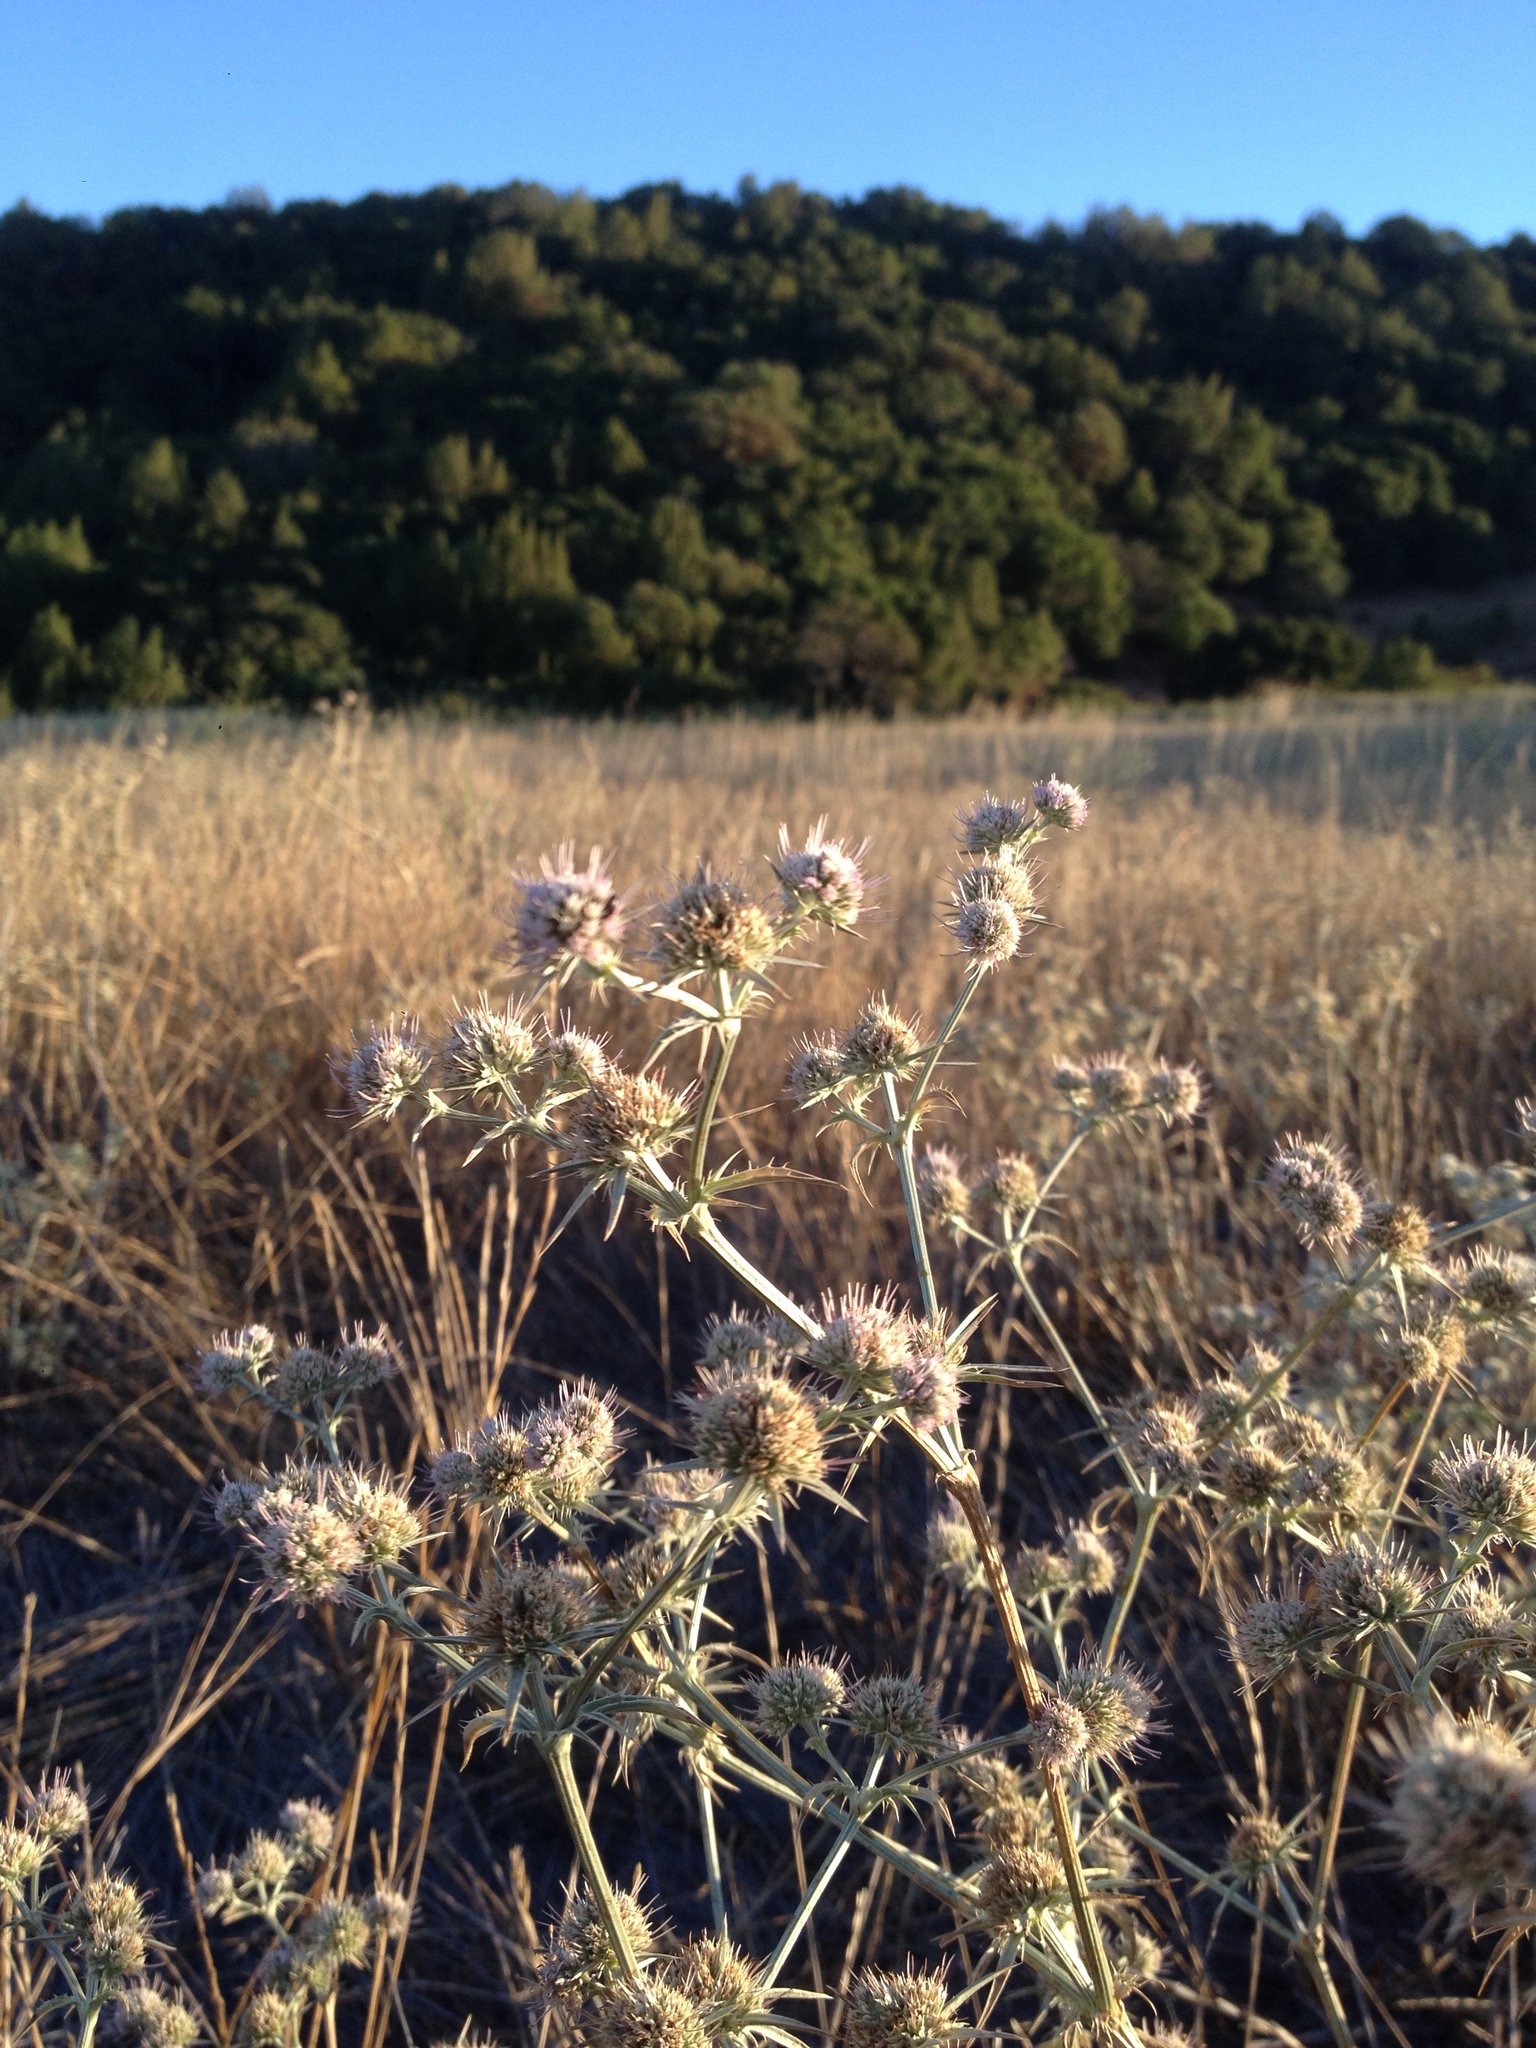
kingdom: Plantae
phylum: Tracheophyta
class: Magnoliopsida
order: Apiales
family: Apiaceae
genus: Eryngium
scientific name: Eryngium aristulatum
